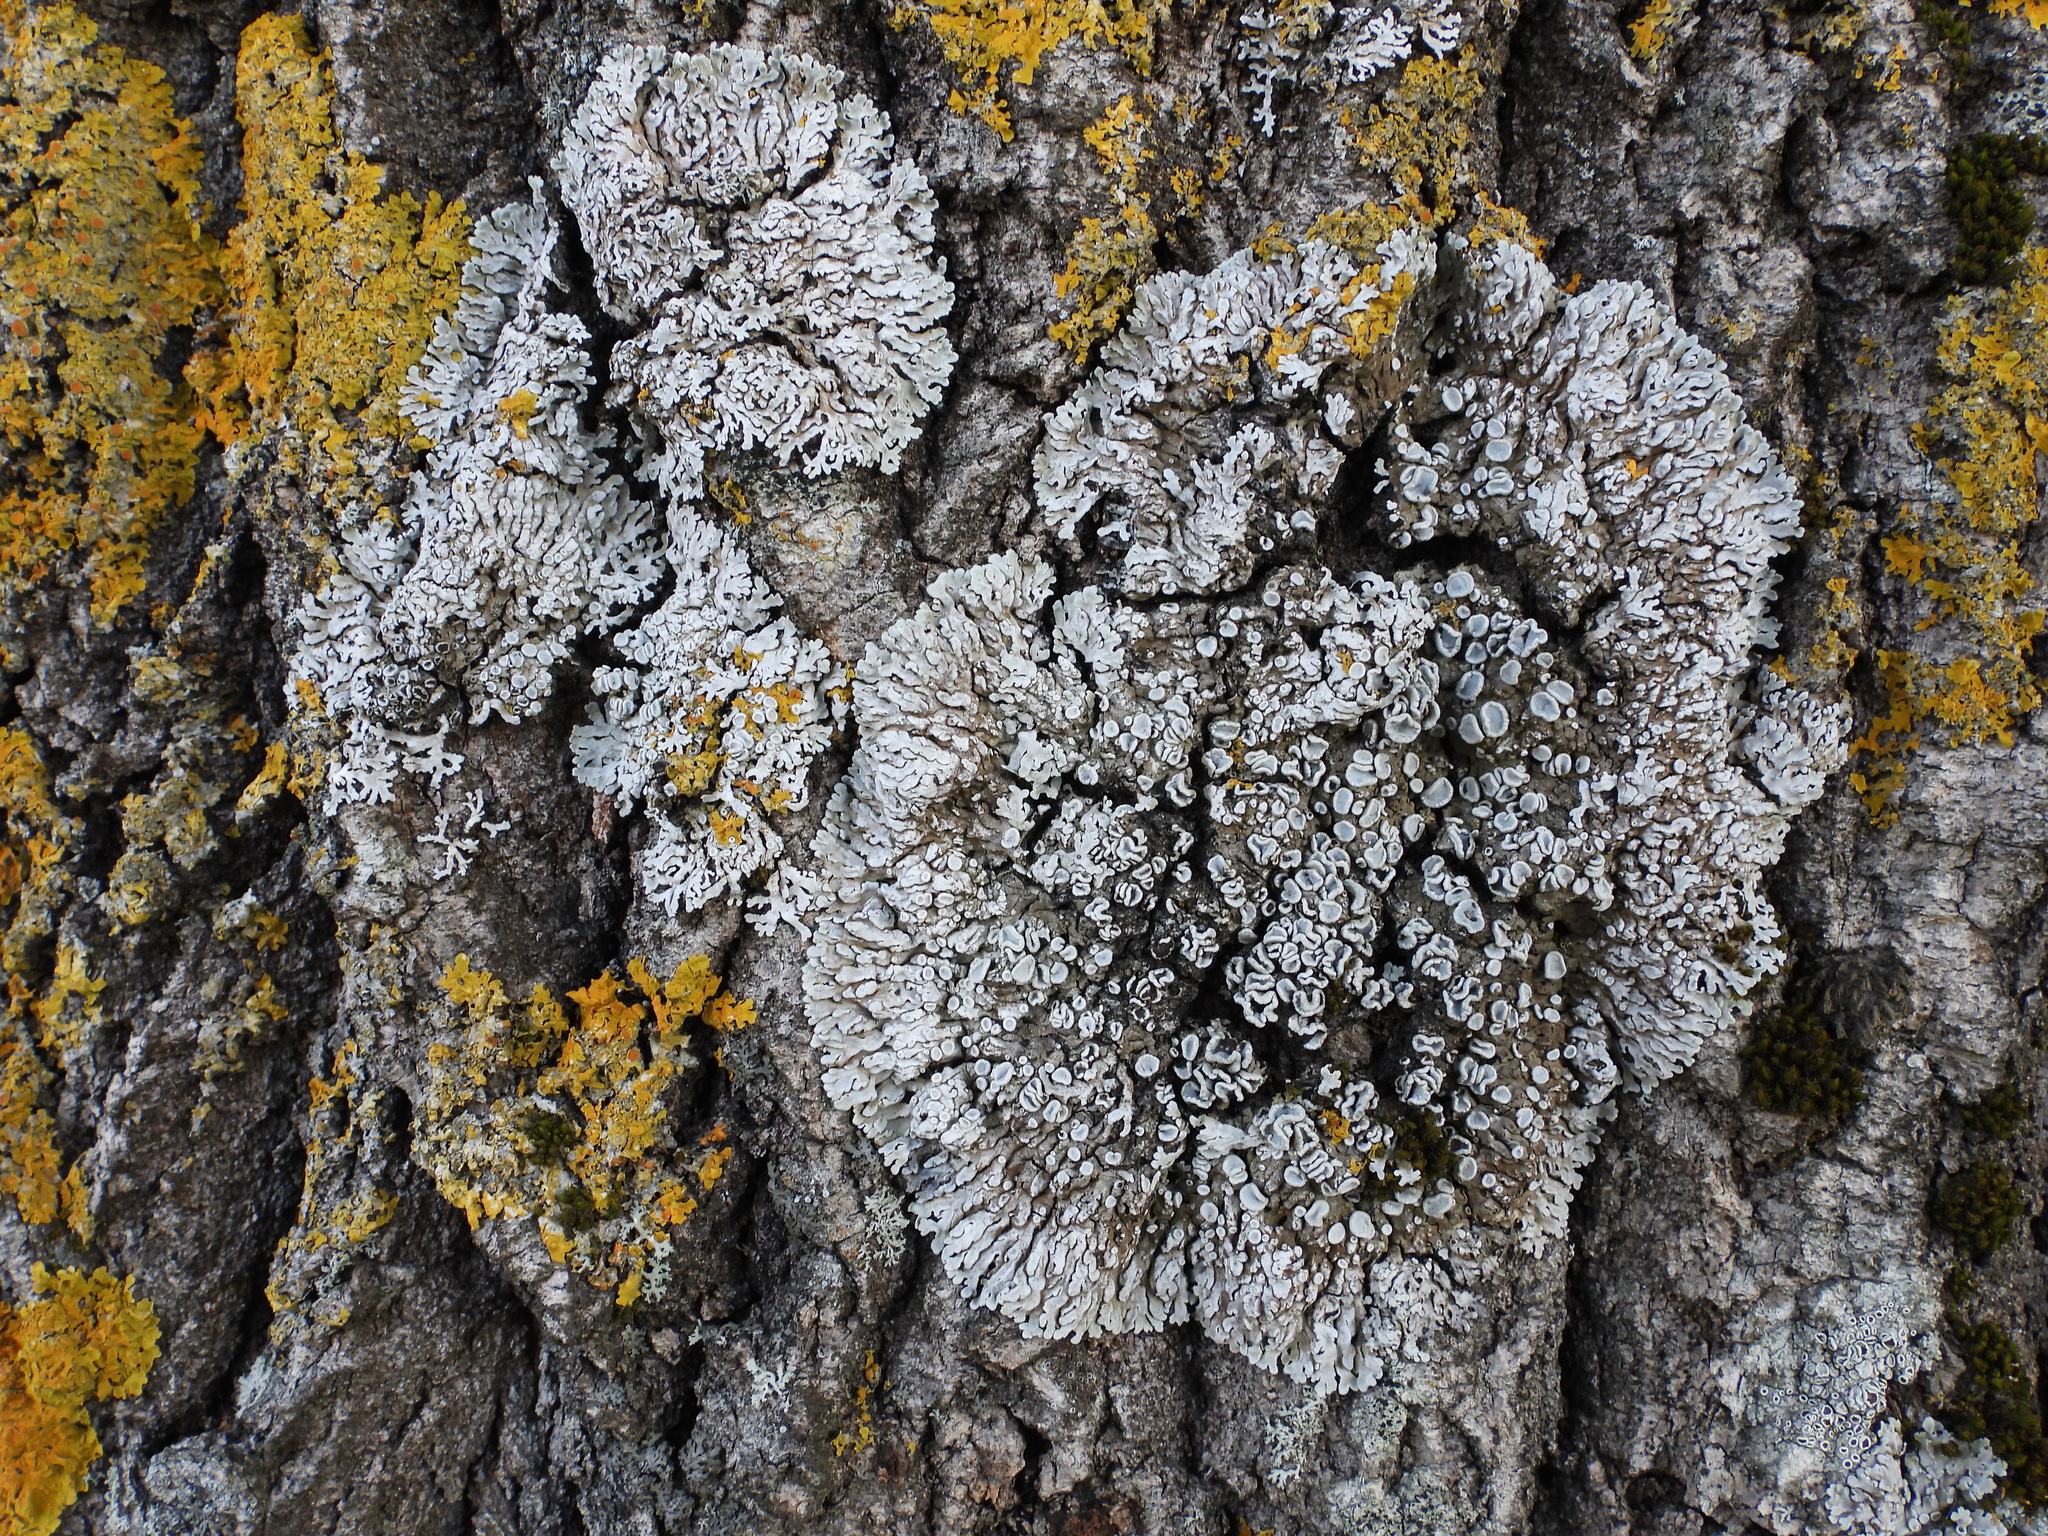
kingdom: Fungi
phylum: Ascomycota
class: Lecanoromycetes
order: Caliciales
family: Physciaceae
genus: Physconia
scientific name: Physconia distorta
